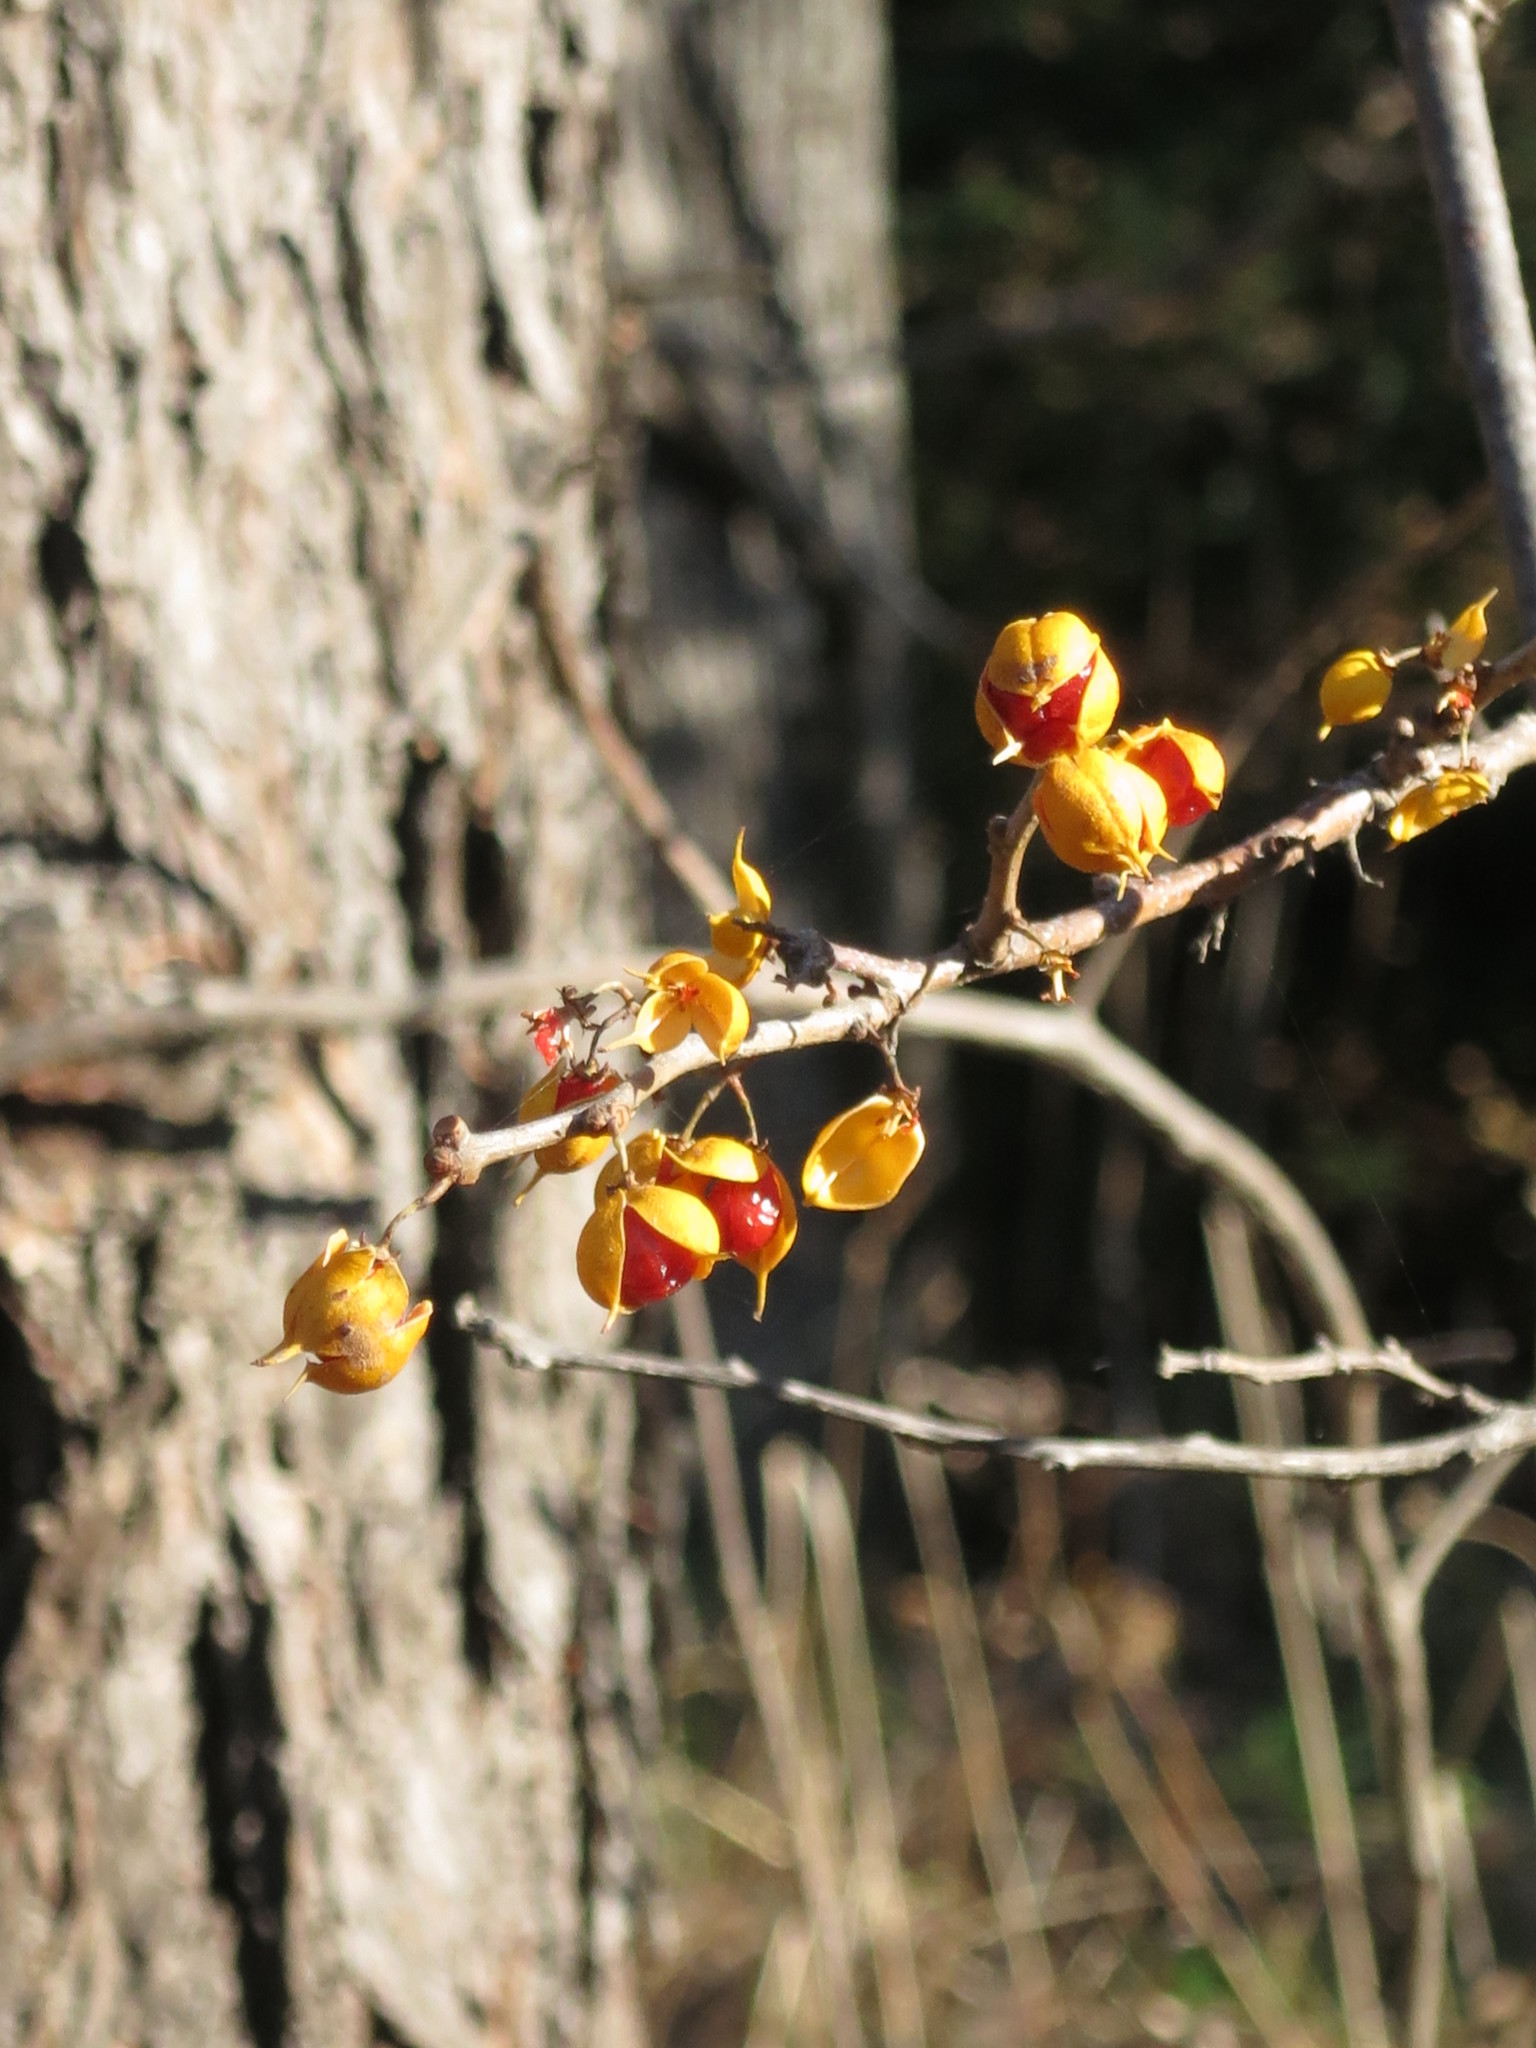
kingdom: Plantae
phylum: Tracheophyta
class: Magnoliopsida
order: Celastrales
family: Celastraceae
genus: Celastrus
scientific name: Celastrus orbiculatus
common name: Oriental bittersweet
